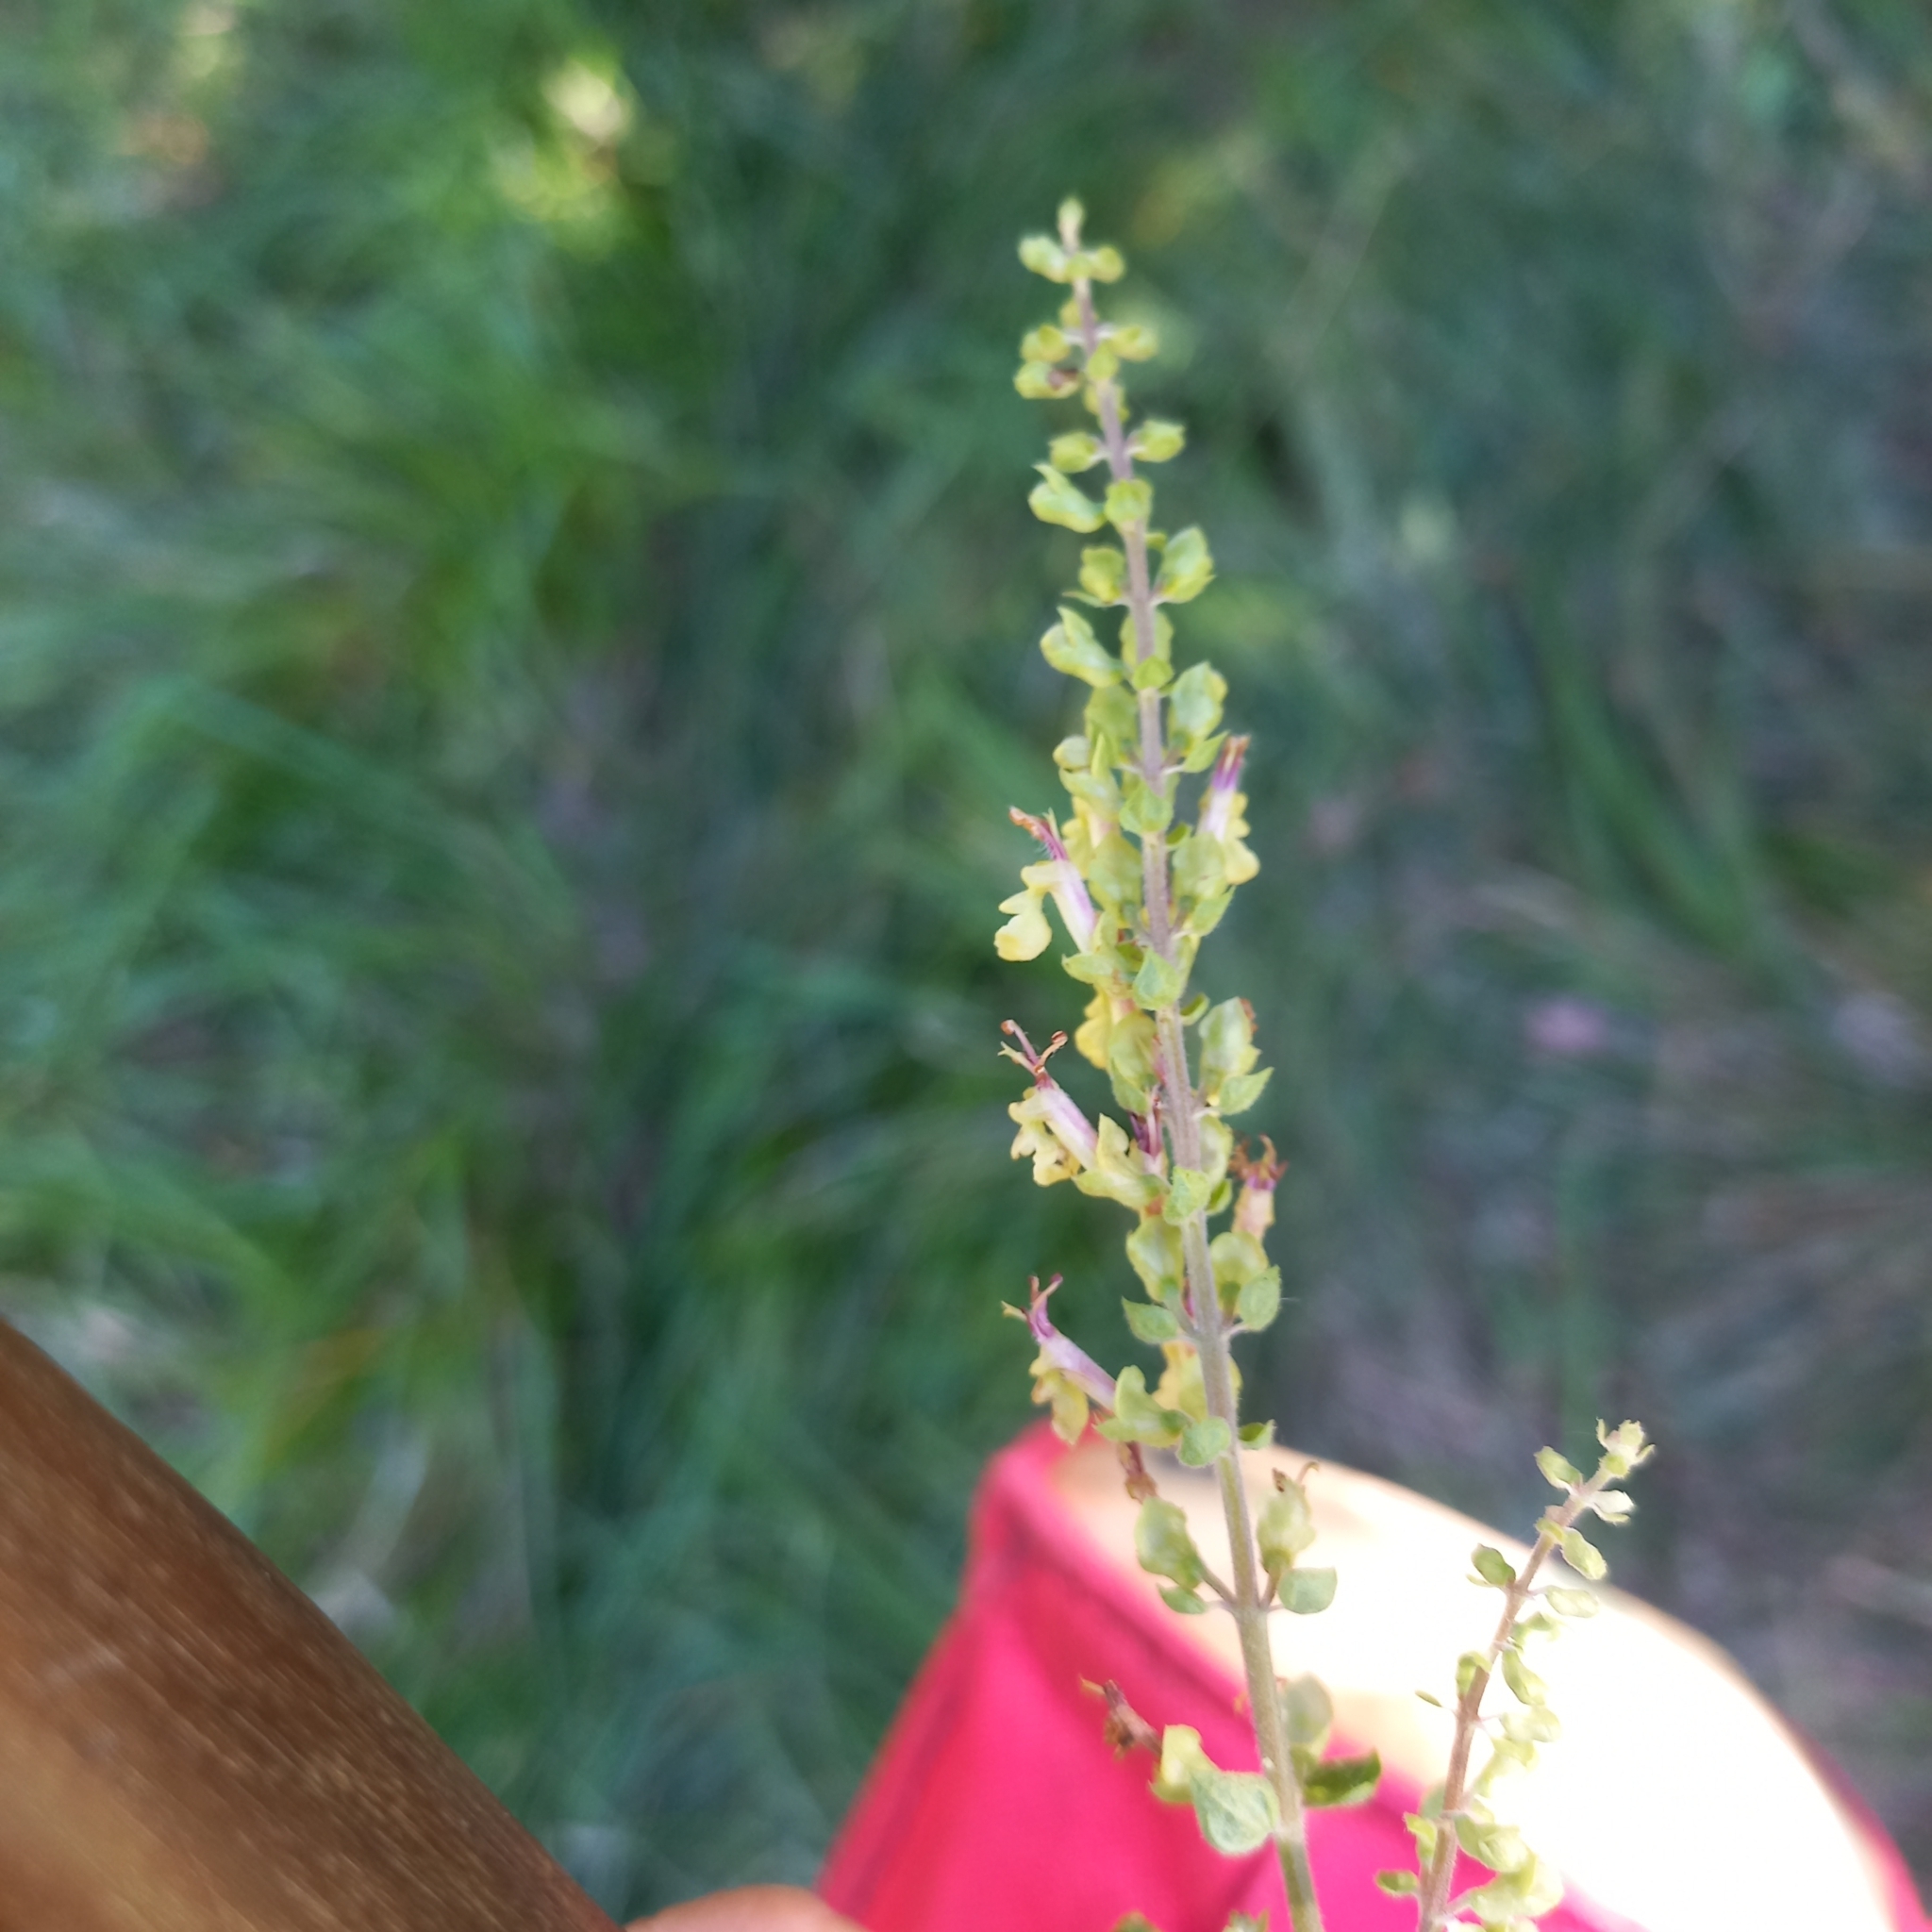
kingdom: Plantae
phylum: Tracheophyta
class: Magnoliopsida
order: Lamiales
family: Lamiaceae
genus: Teucrium
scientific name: Teucrium scorodonia
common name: Woodland germander
